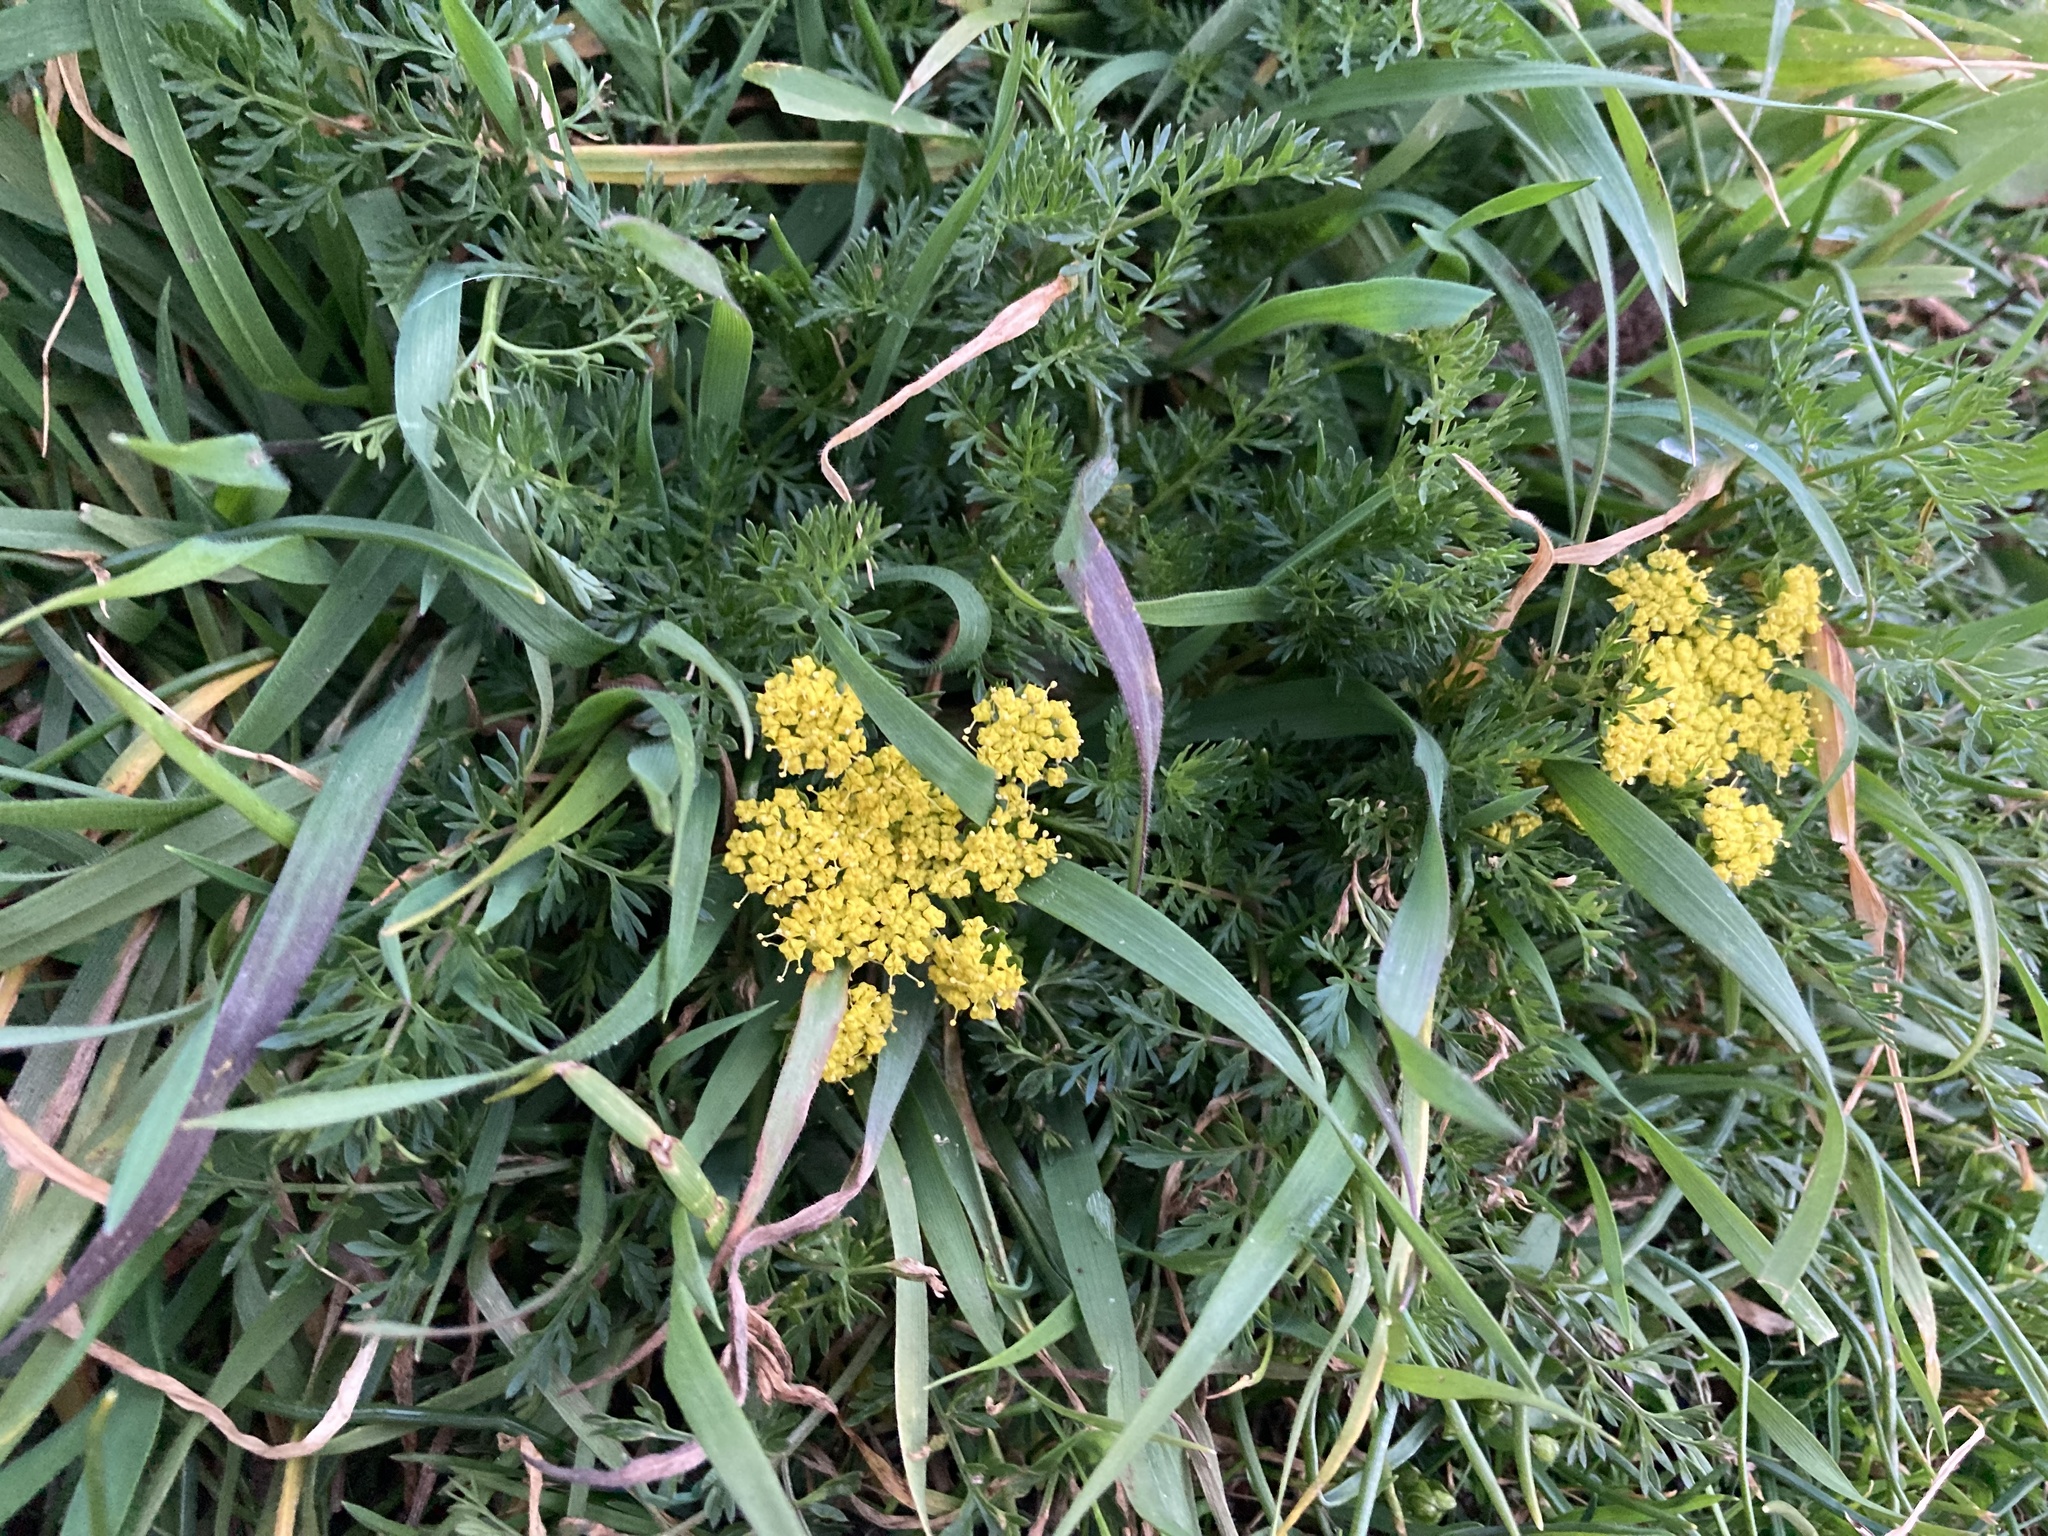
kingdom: Plantae
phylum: Tracheophyta
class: Magnoliopsida
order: Apiales
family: Apiaceae
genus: Lomatium
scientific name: Lomatium utriculatum
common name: Fine-leaf desert-parsley
